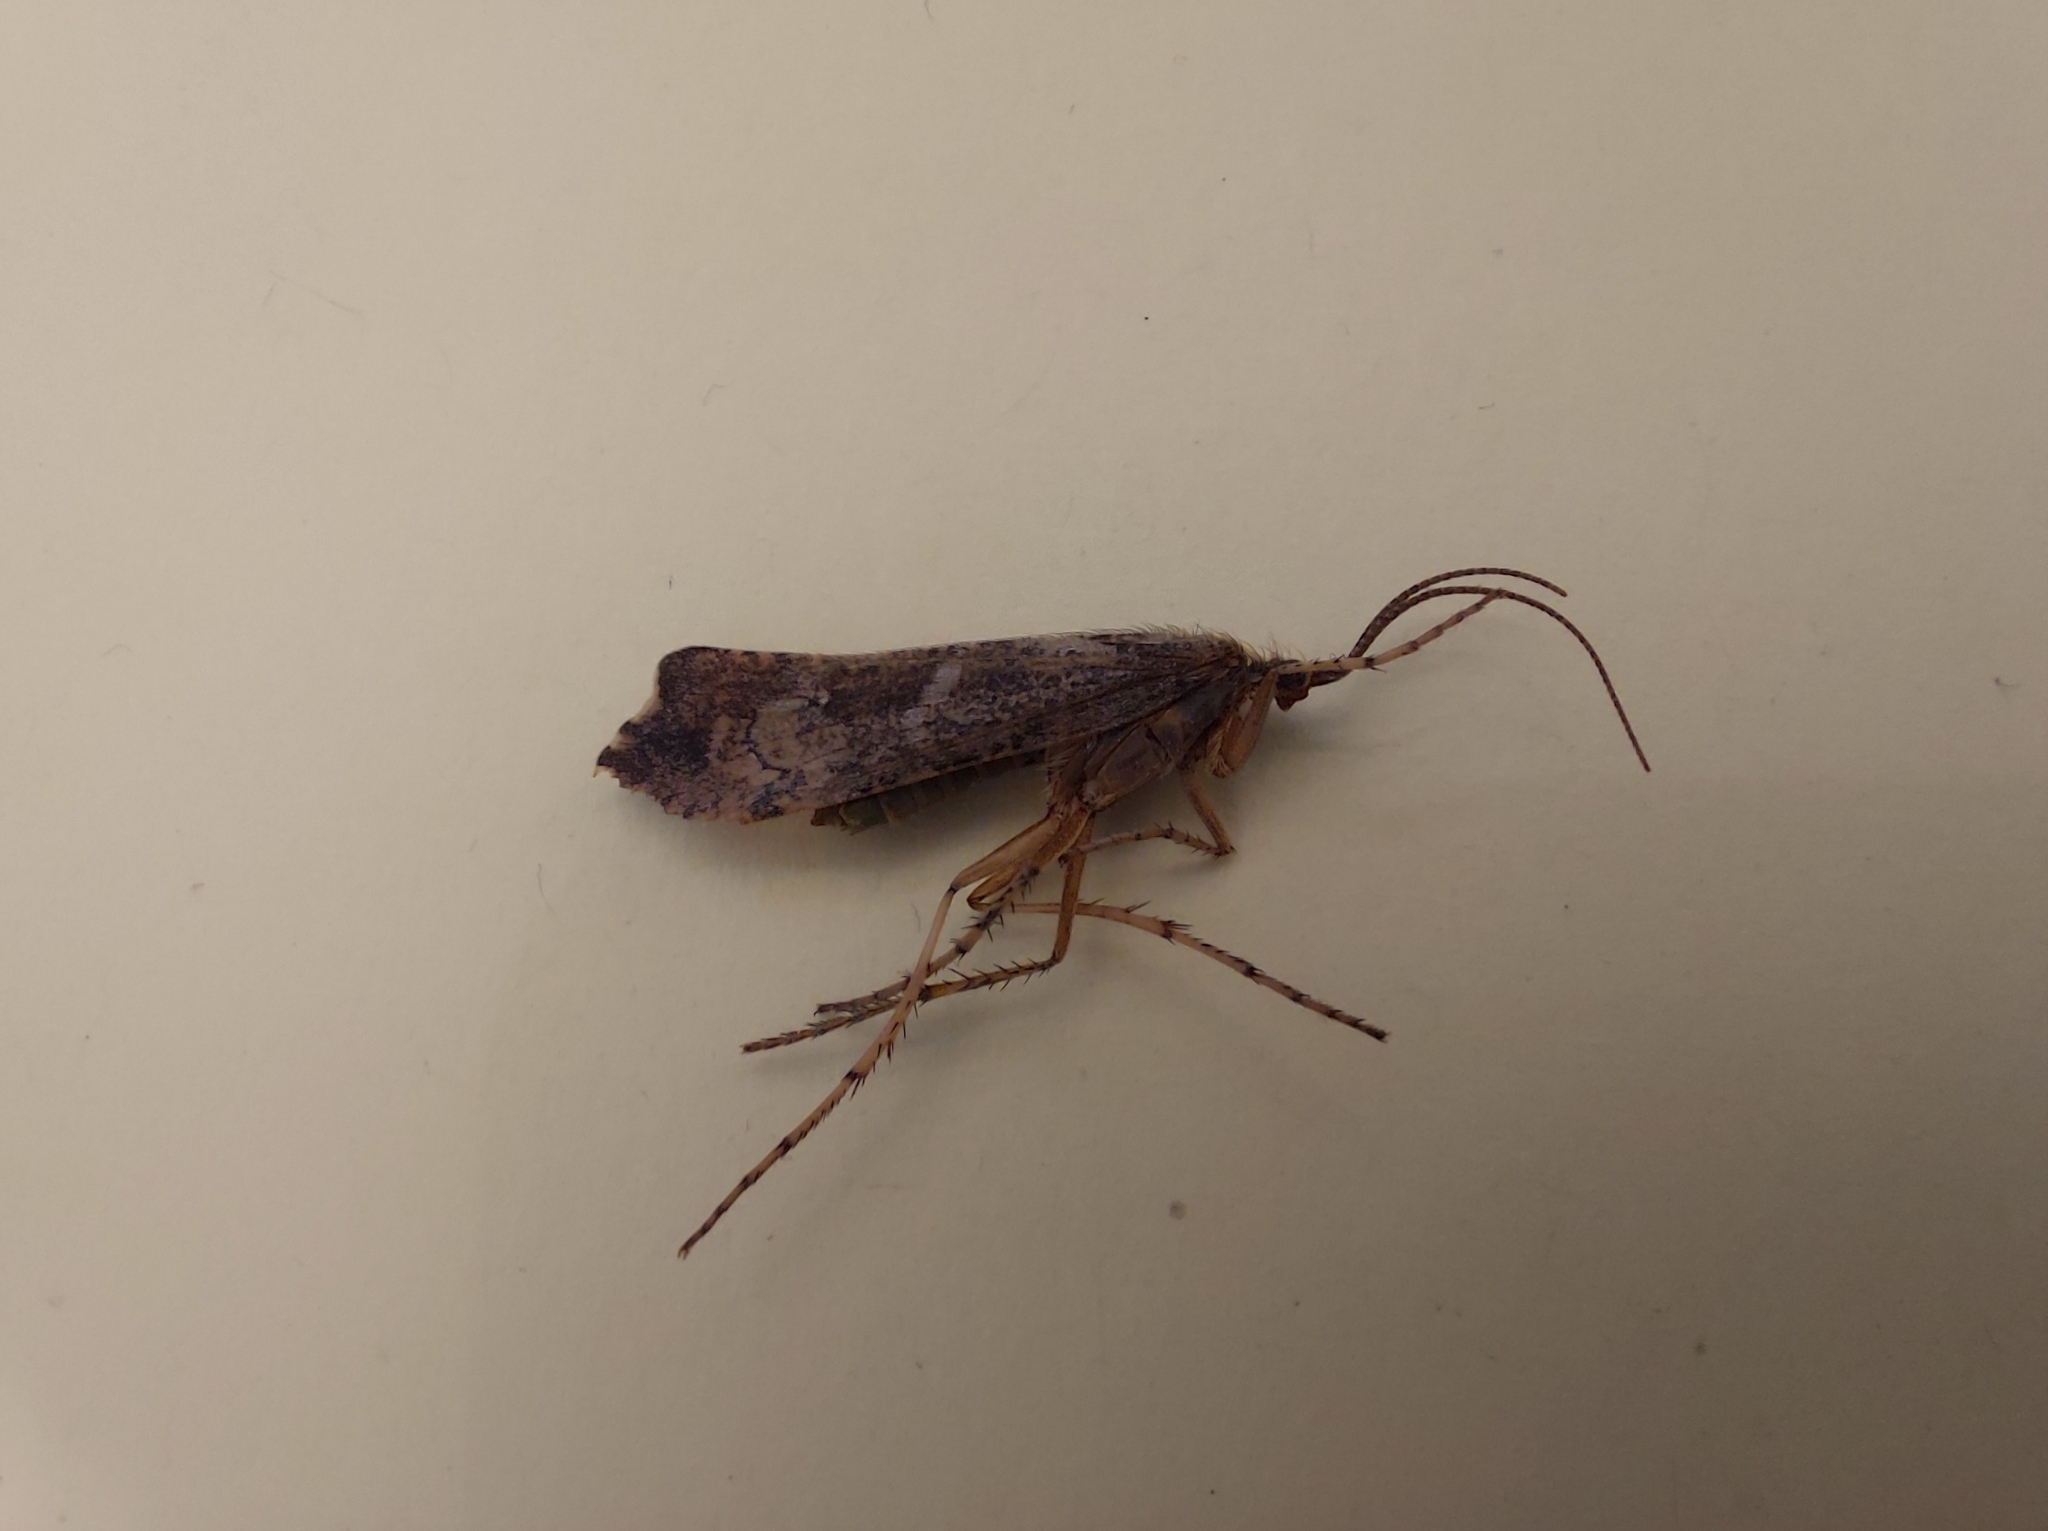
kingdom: Animalia
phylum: Arthropoda
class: Insecta
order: Trichoptera
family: Limnephilidae
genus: Glyphotaelius
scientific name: Glyphotaelius pellucidus
